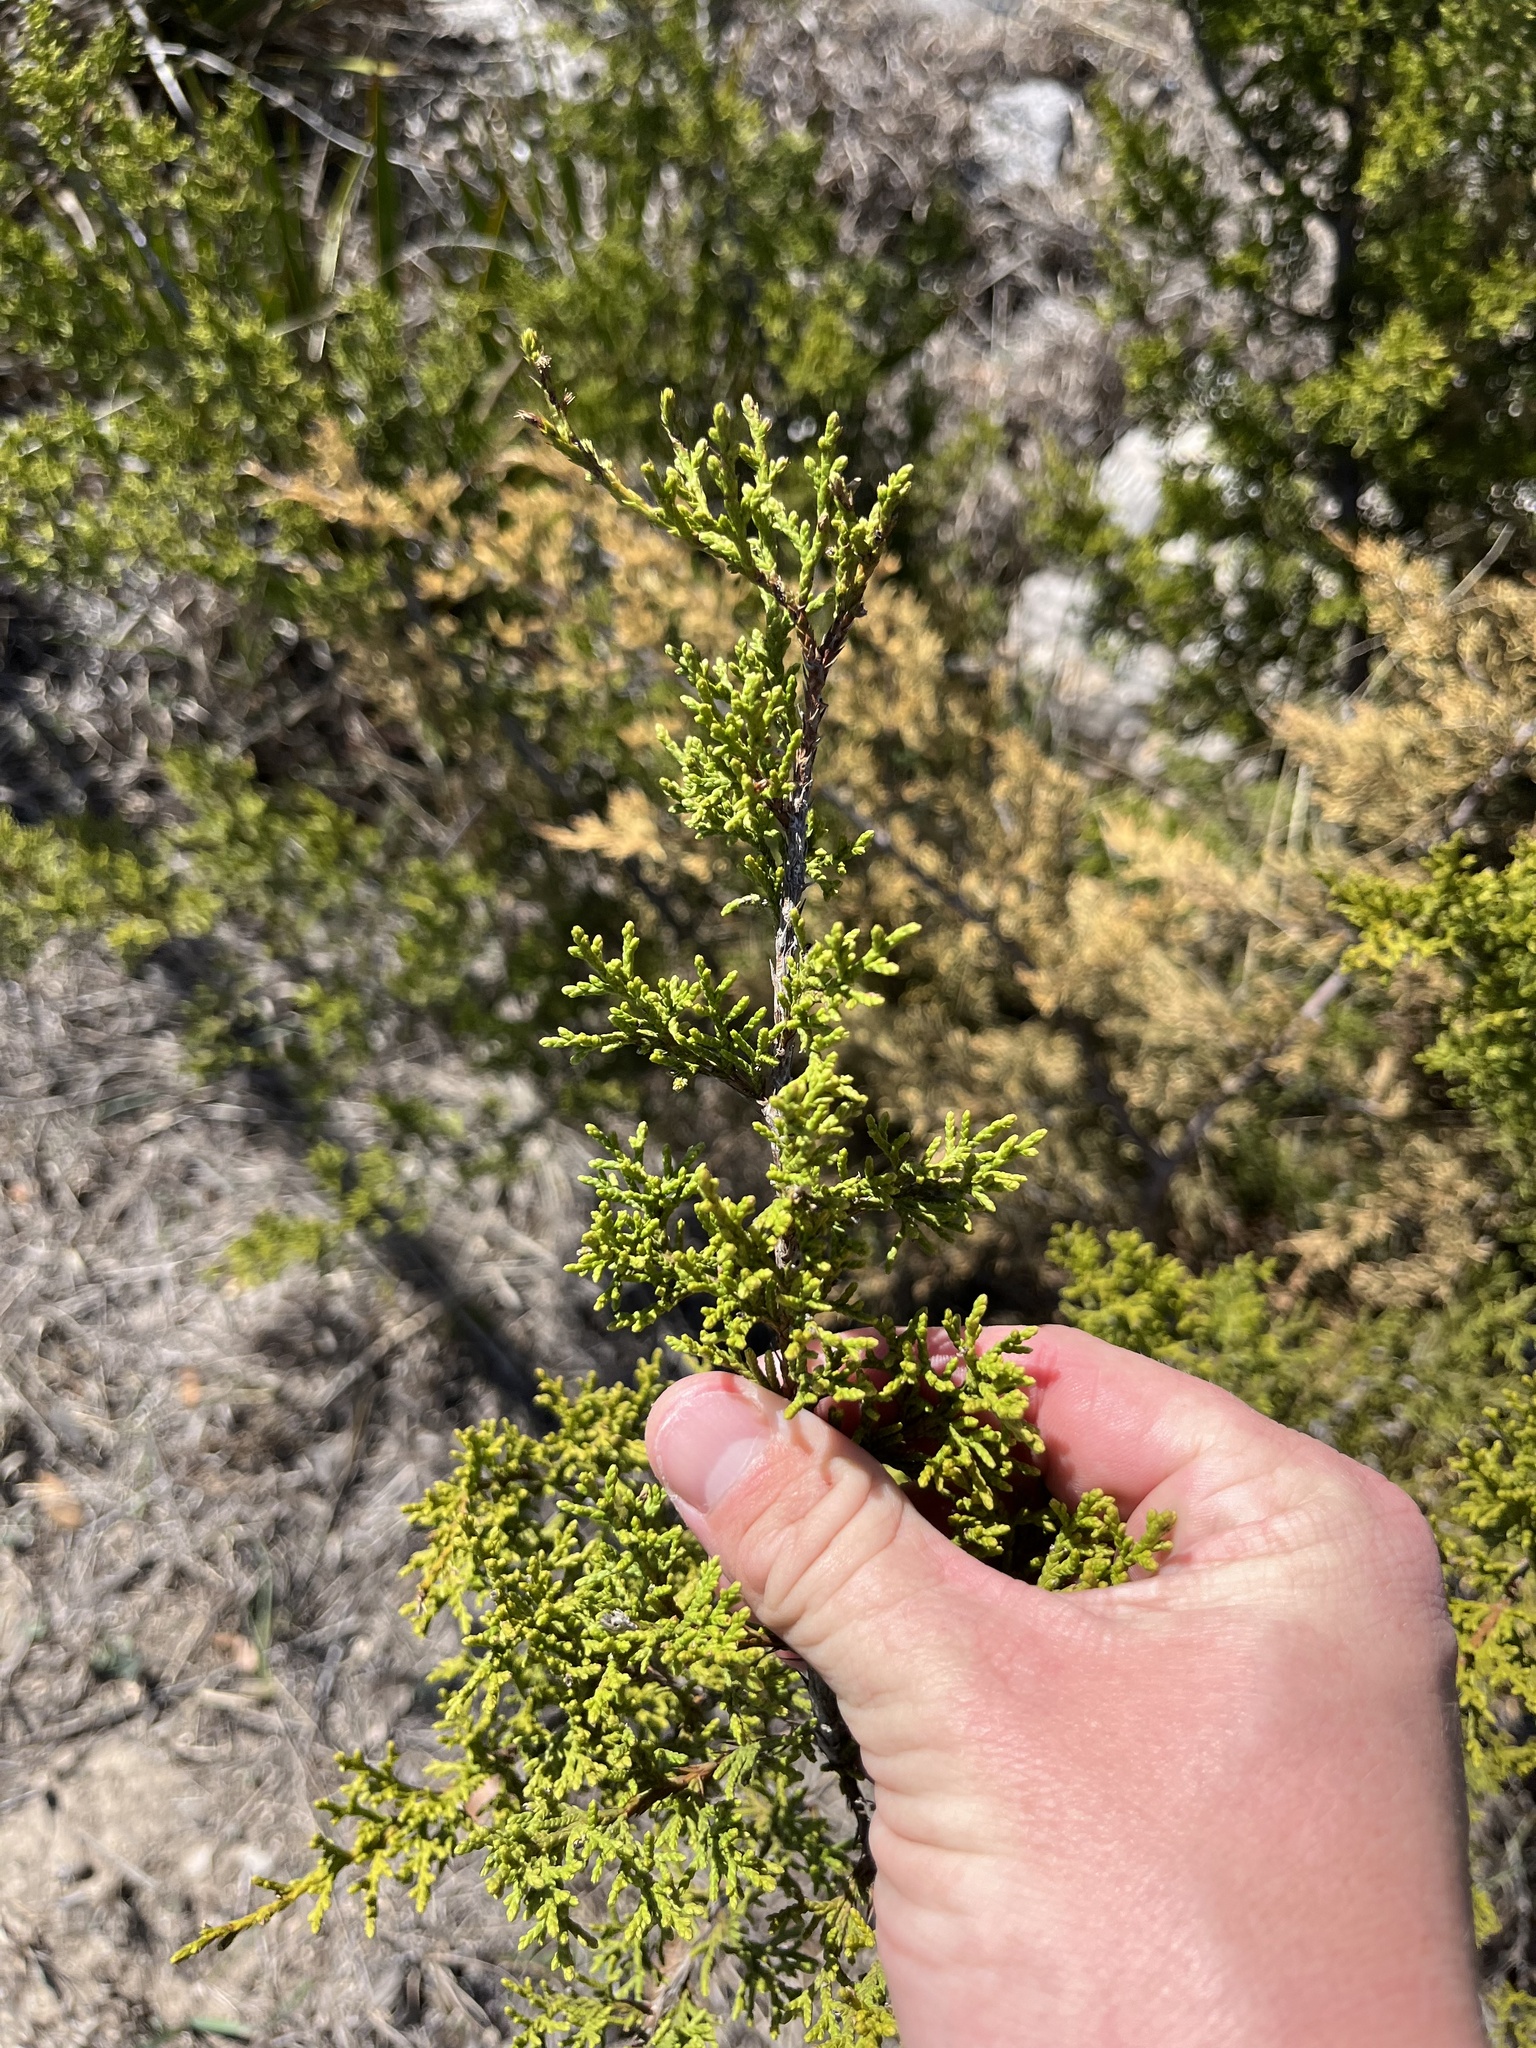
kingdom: Plantae
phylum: Tracheophyta
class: Pinopsida
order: Pinales
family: Cupressaceae
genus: Juniperus
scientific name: Juniperus ashei
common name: Mexican juniper
